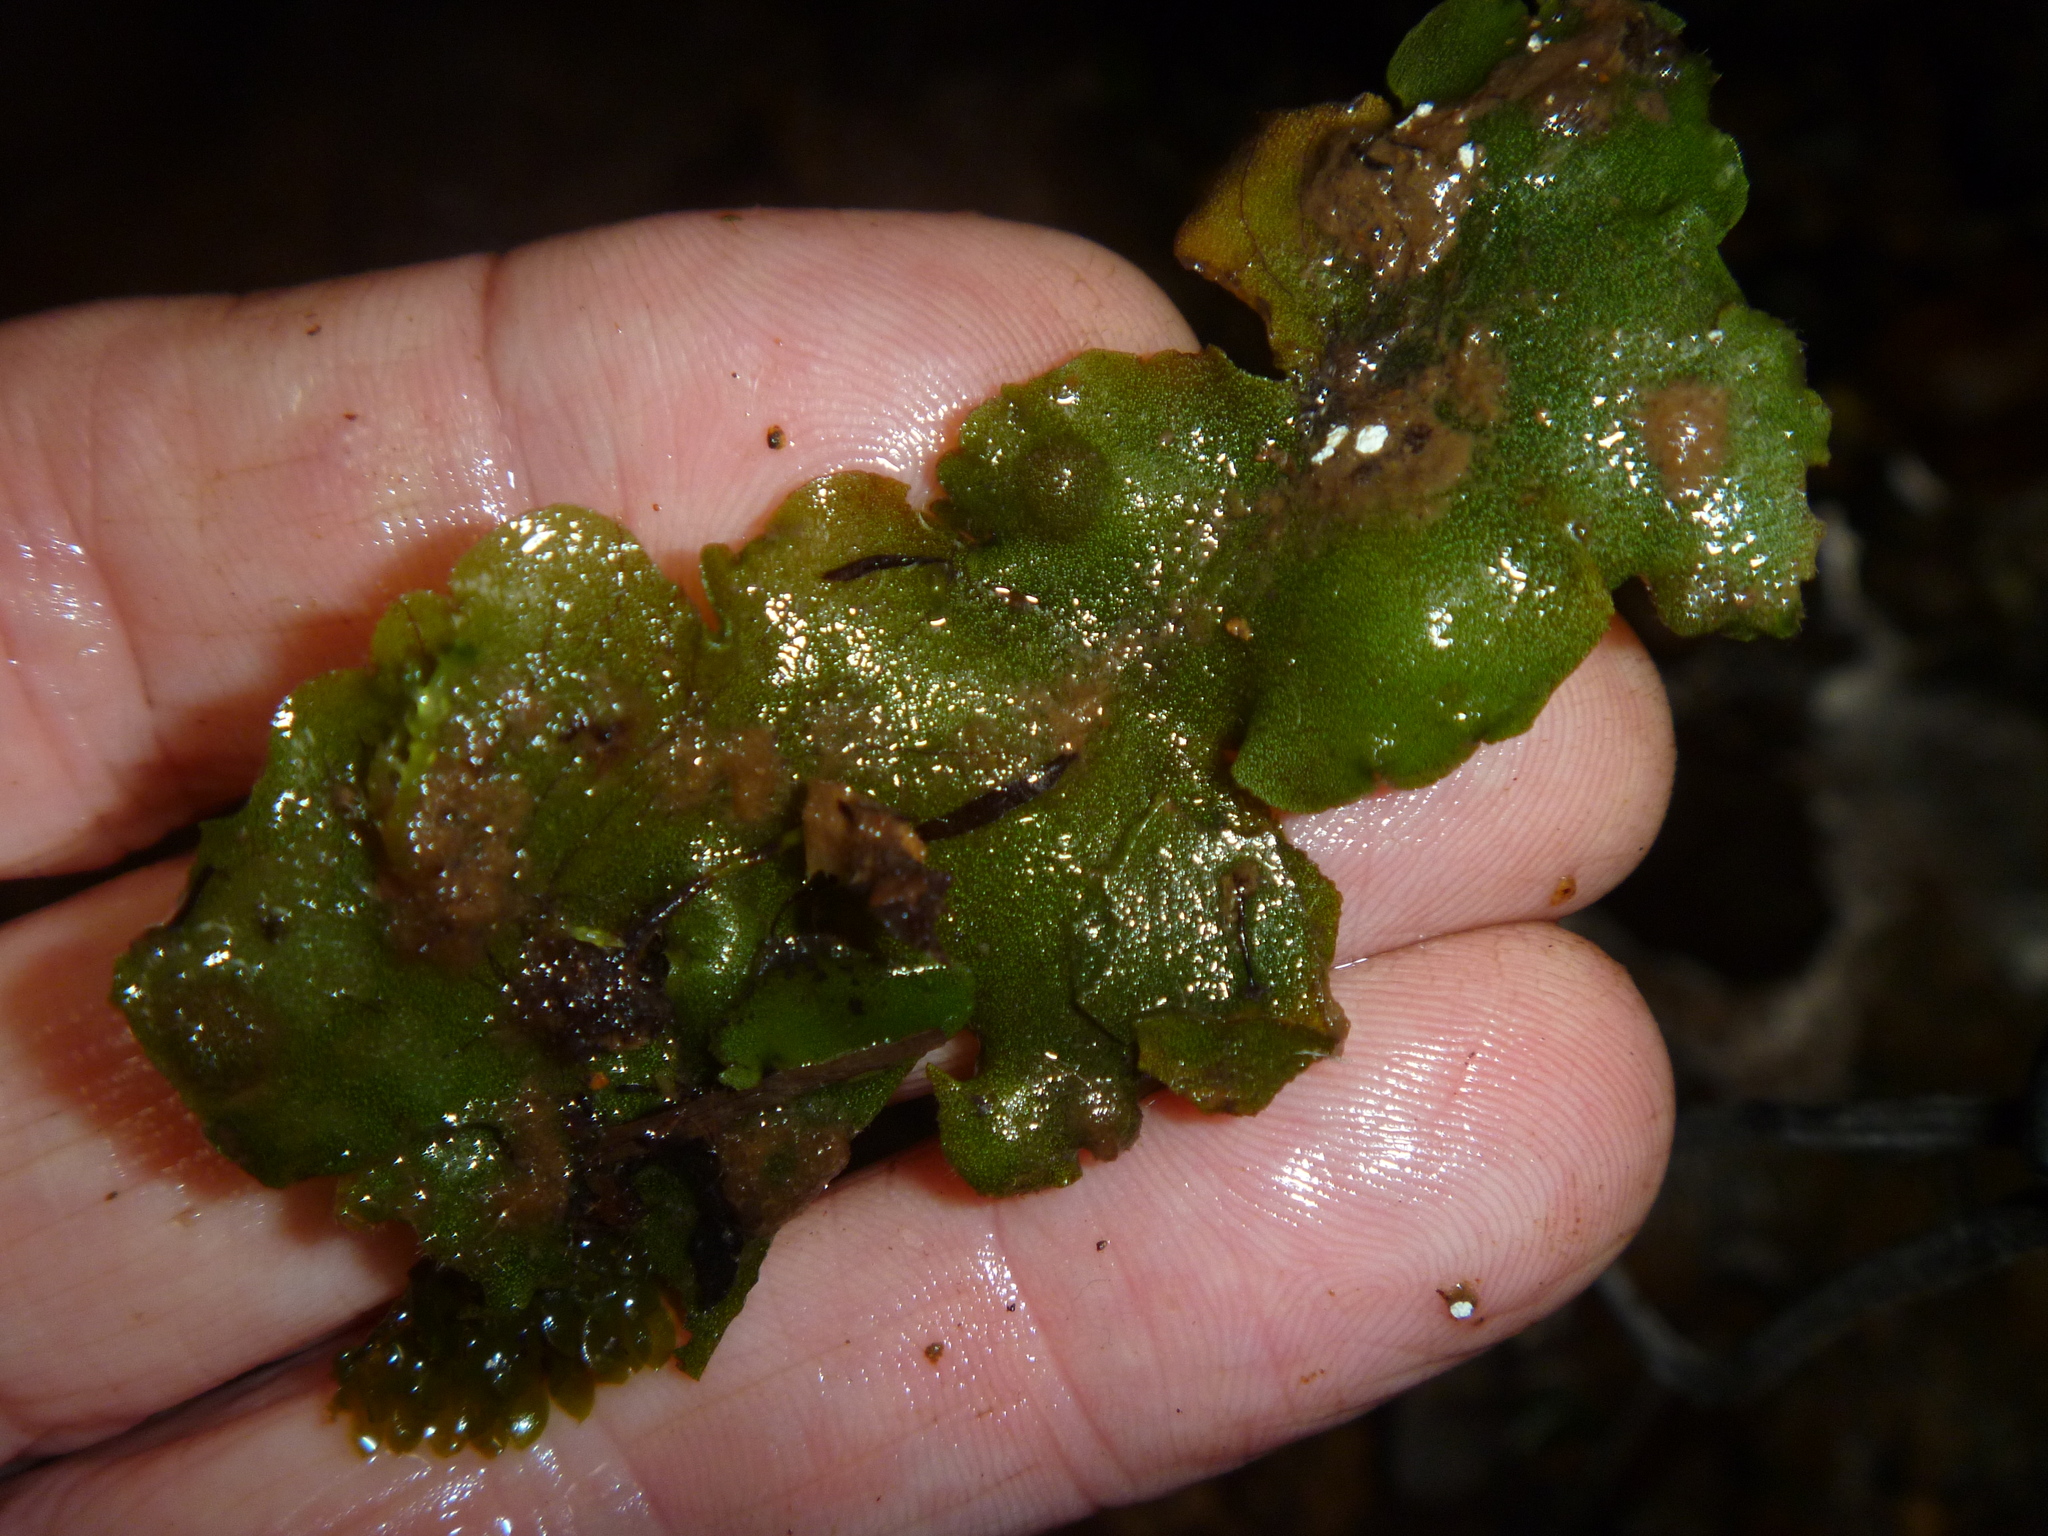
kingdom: Plantae
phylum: Marchantiophyta
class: Marchantiopsida
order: Marchantiales
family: Monocleaceae
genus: Monoclea
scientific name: Monoclea forsteri
